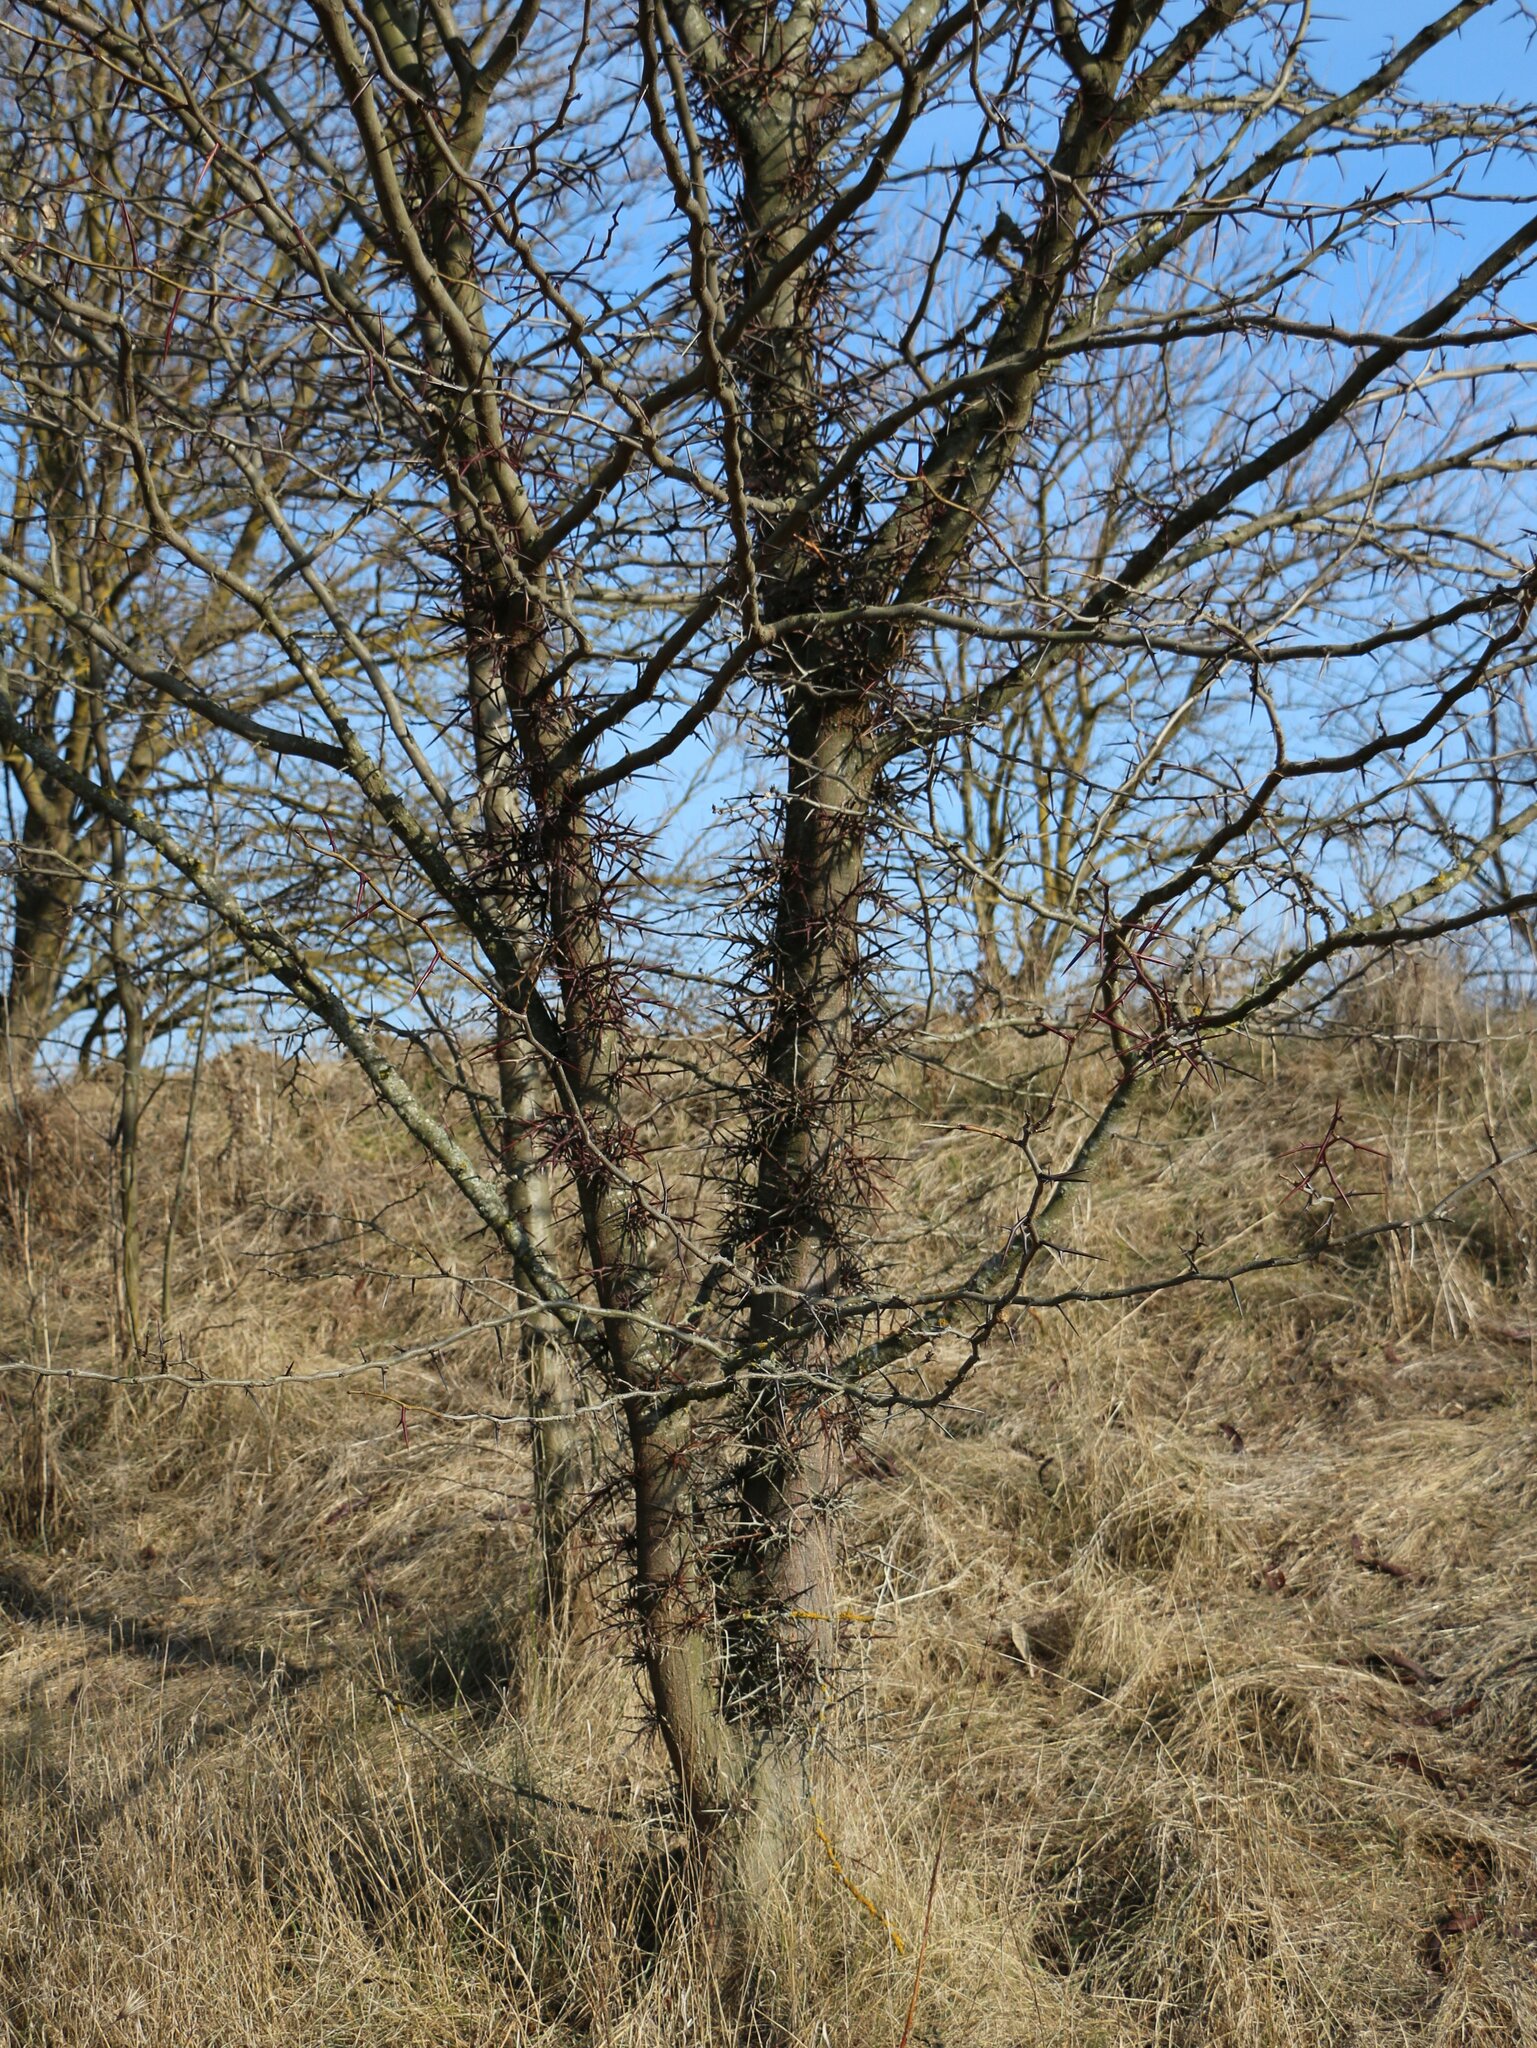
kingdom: Plantae
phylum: Tracheophyta
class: Magnoliopsida
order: Fabales
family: Fabaceae
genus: Gleditsia
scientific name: Gleditsia triacanthos
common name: Common honeylocust
